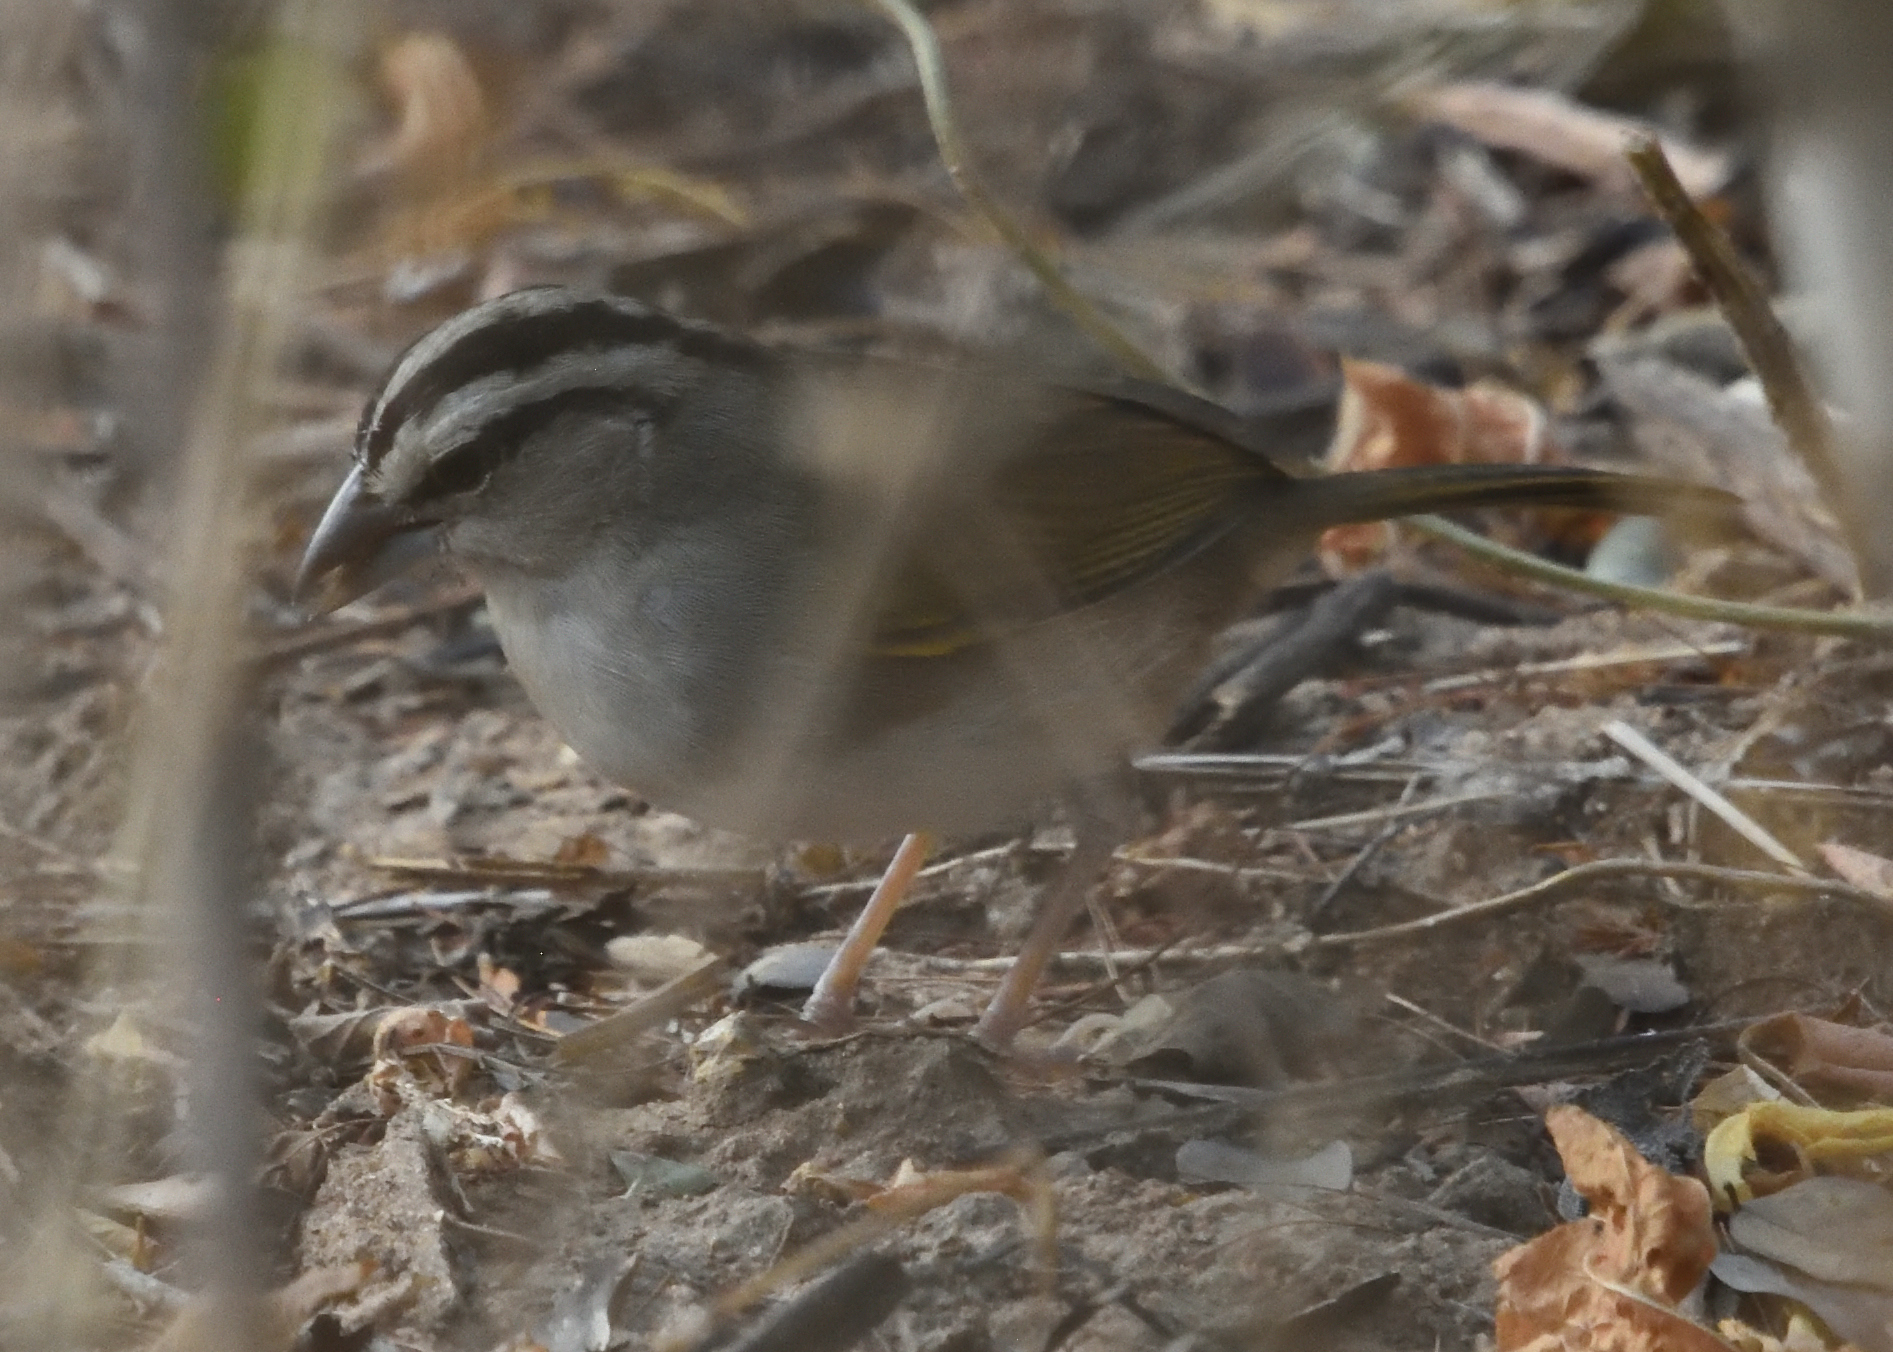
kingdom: Animalia
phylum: Chordata
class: Aves
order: Passeriformes
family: Passerellidae
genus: Arremonops
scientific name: Arremonops tocuyensis
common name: Tocuyo sparrow
